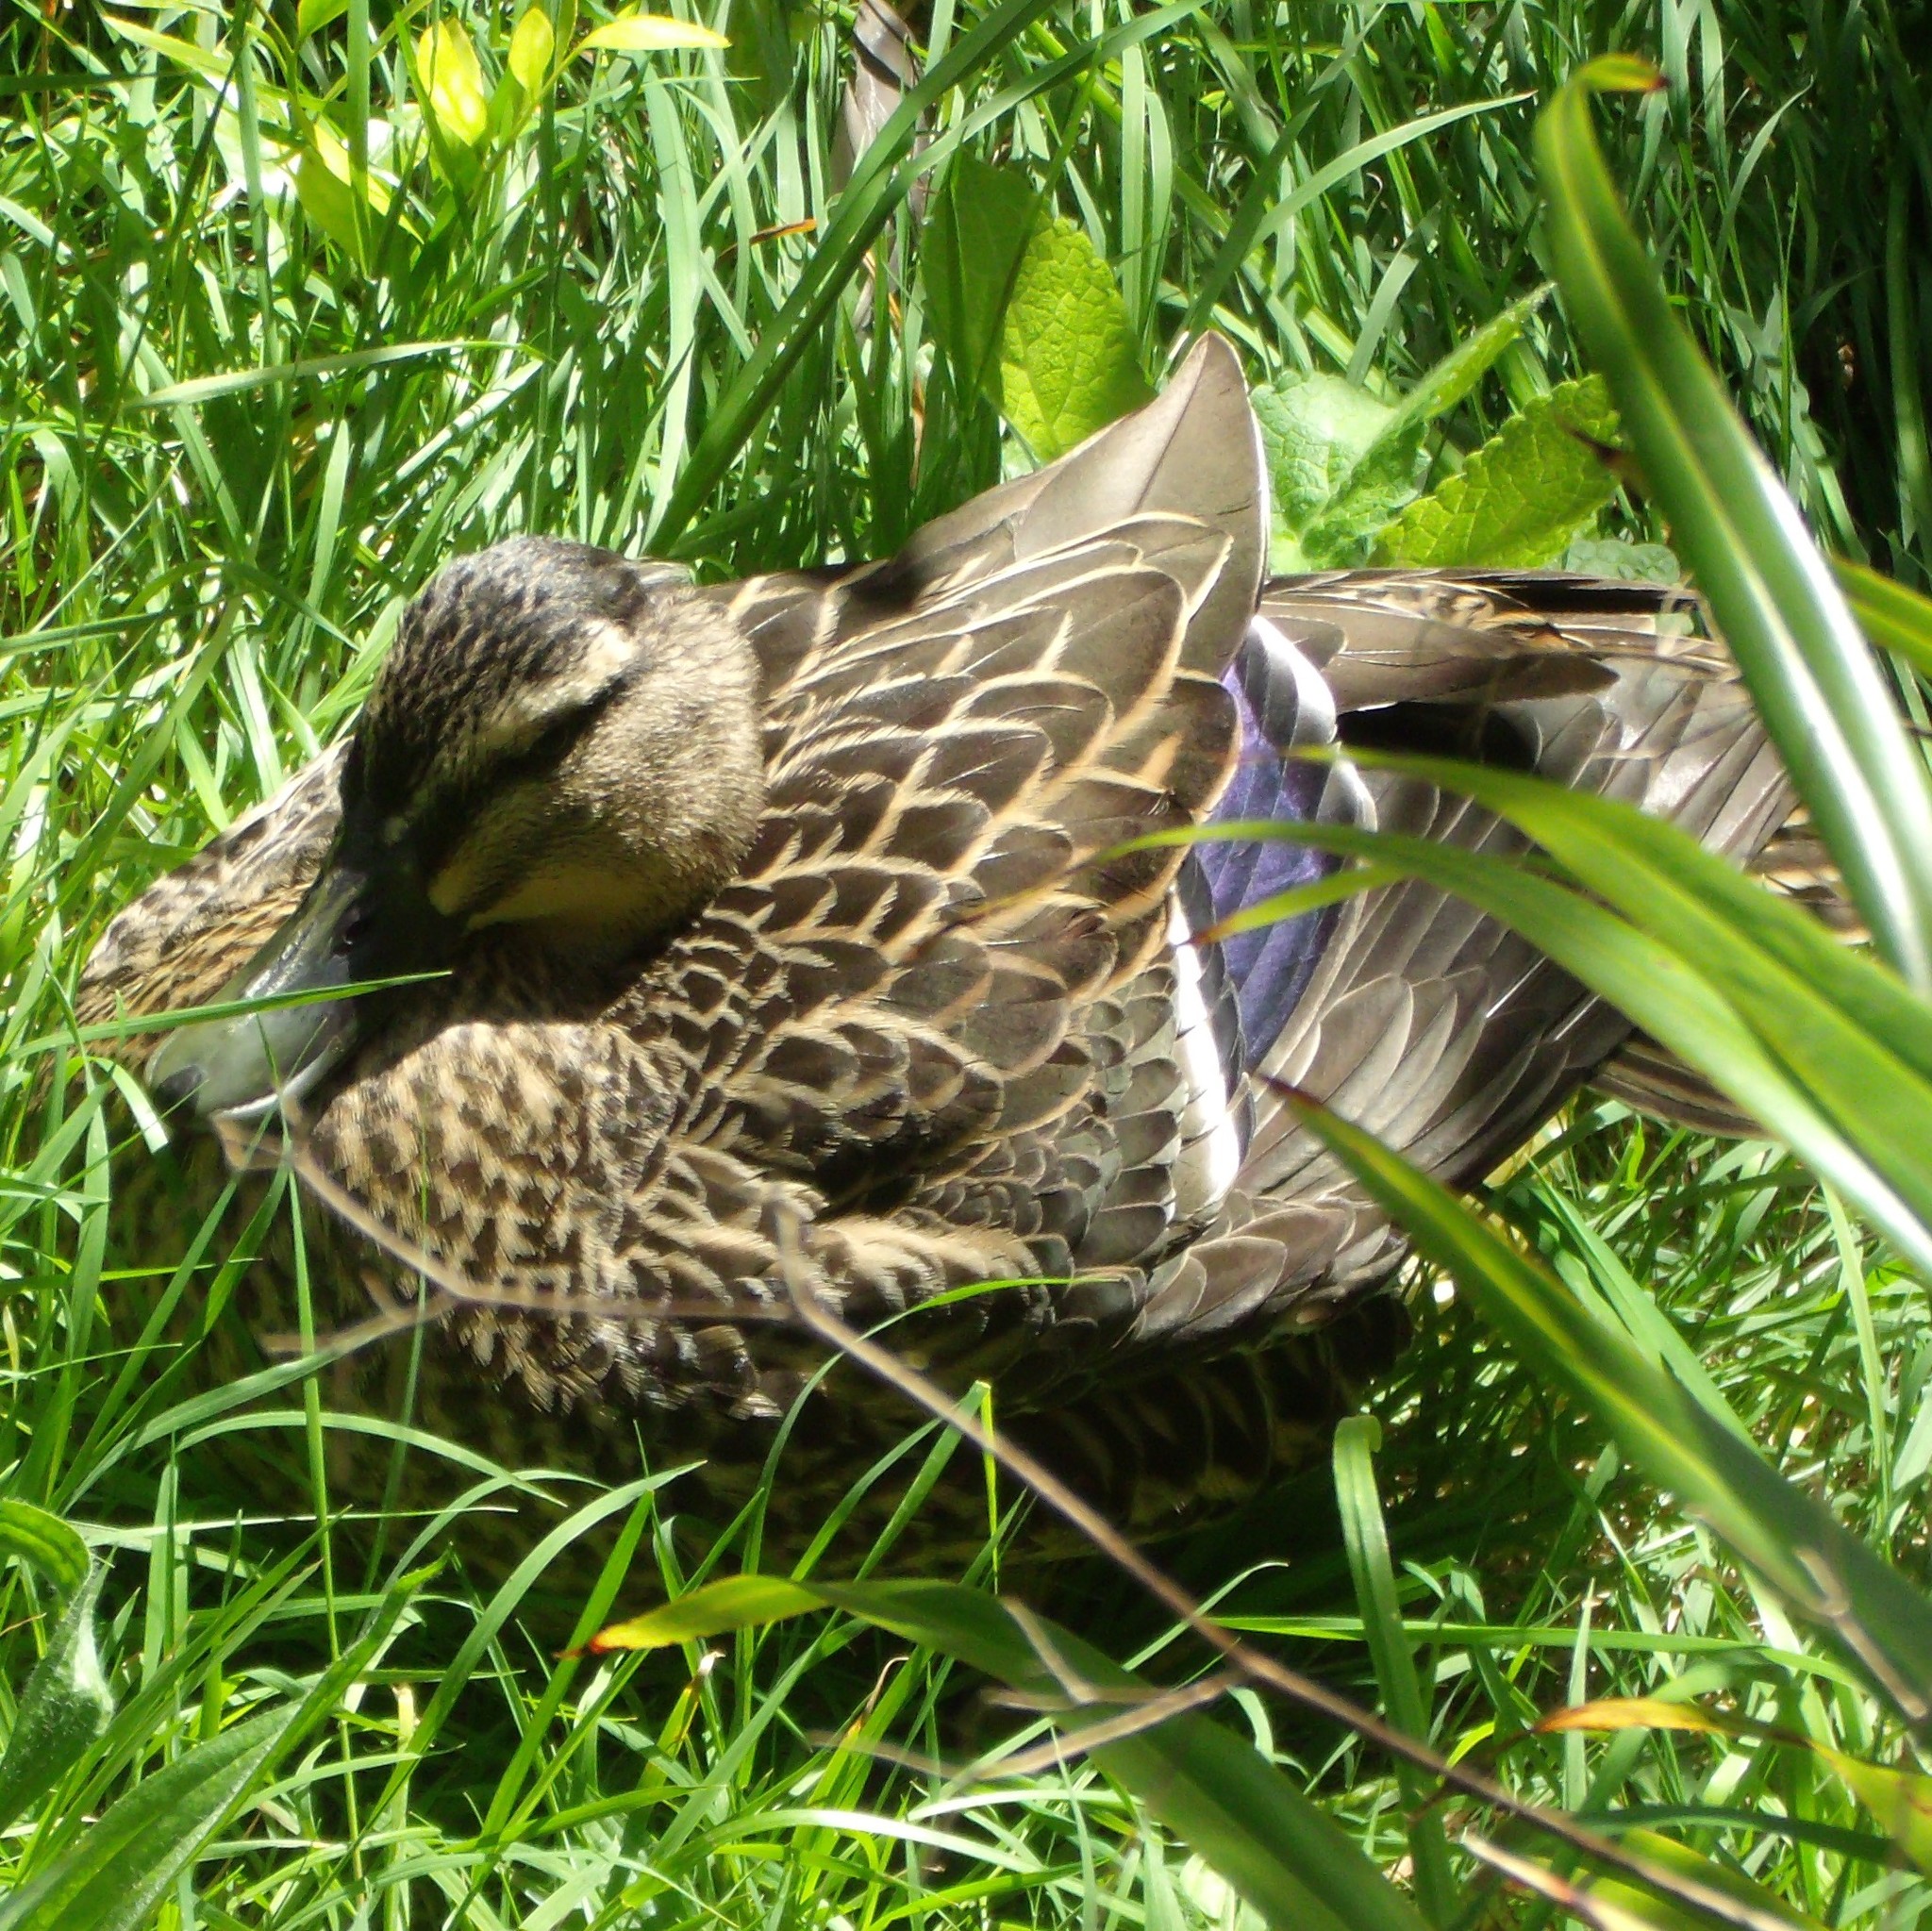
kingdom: Animalia
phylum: Chordata
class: Aves
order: Anseriformes
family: Anatidae
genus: Anas
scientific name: Anas platyrhynchos
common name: Mallard
